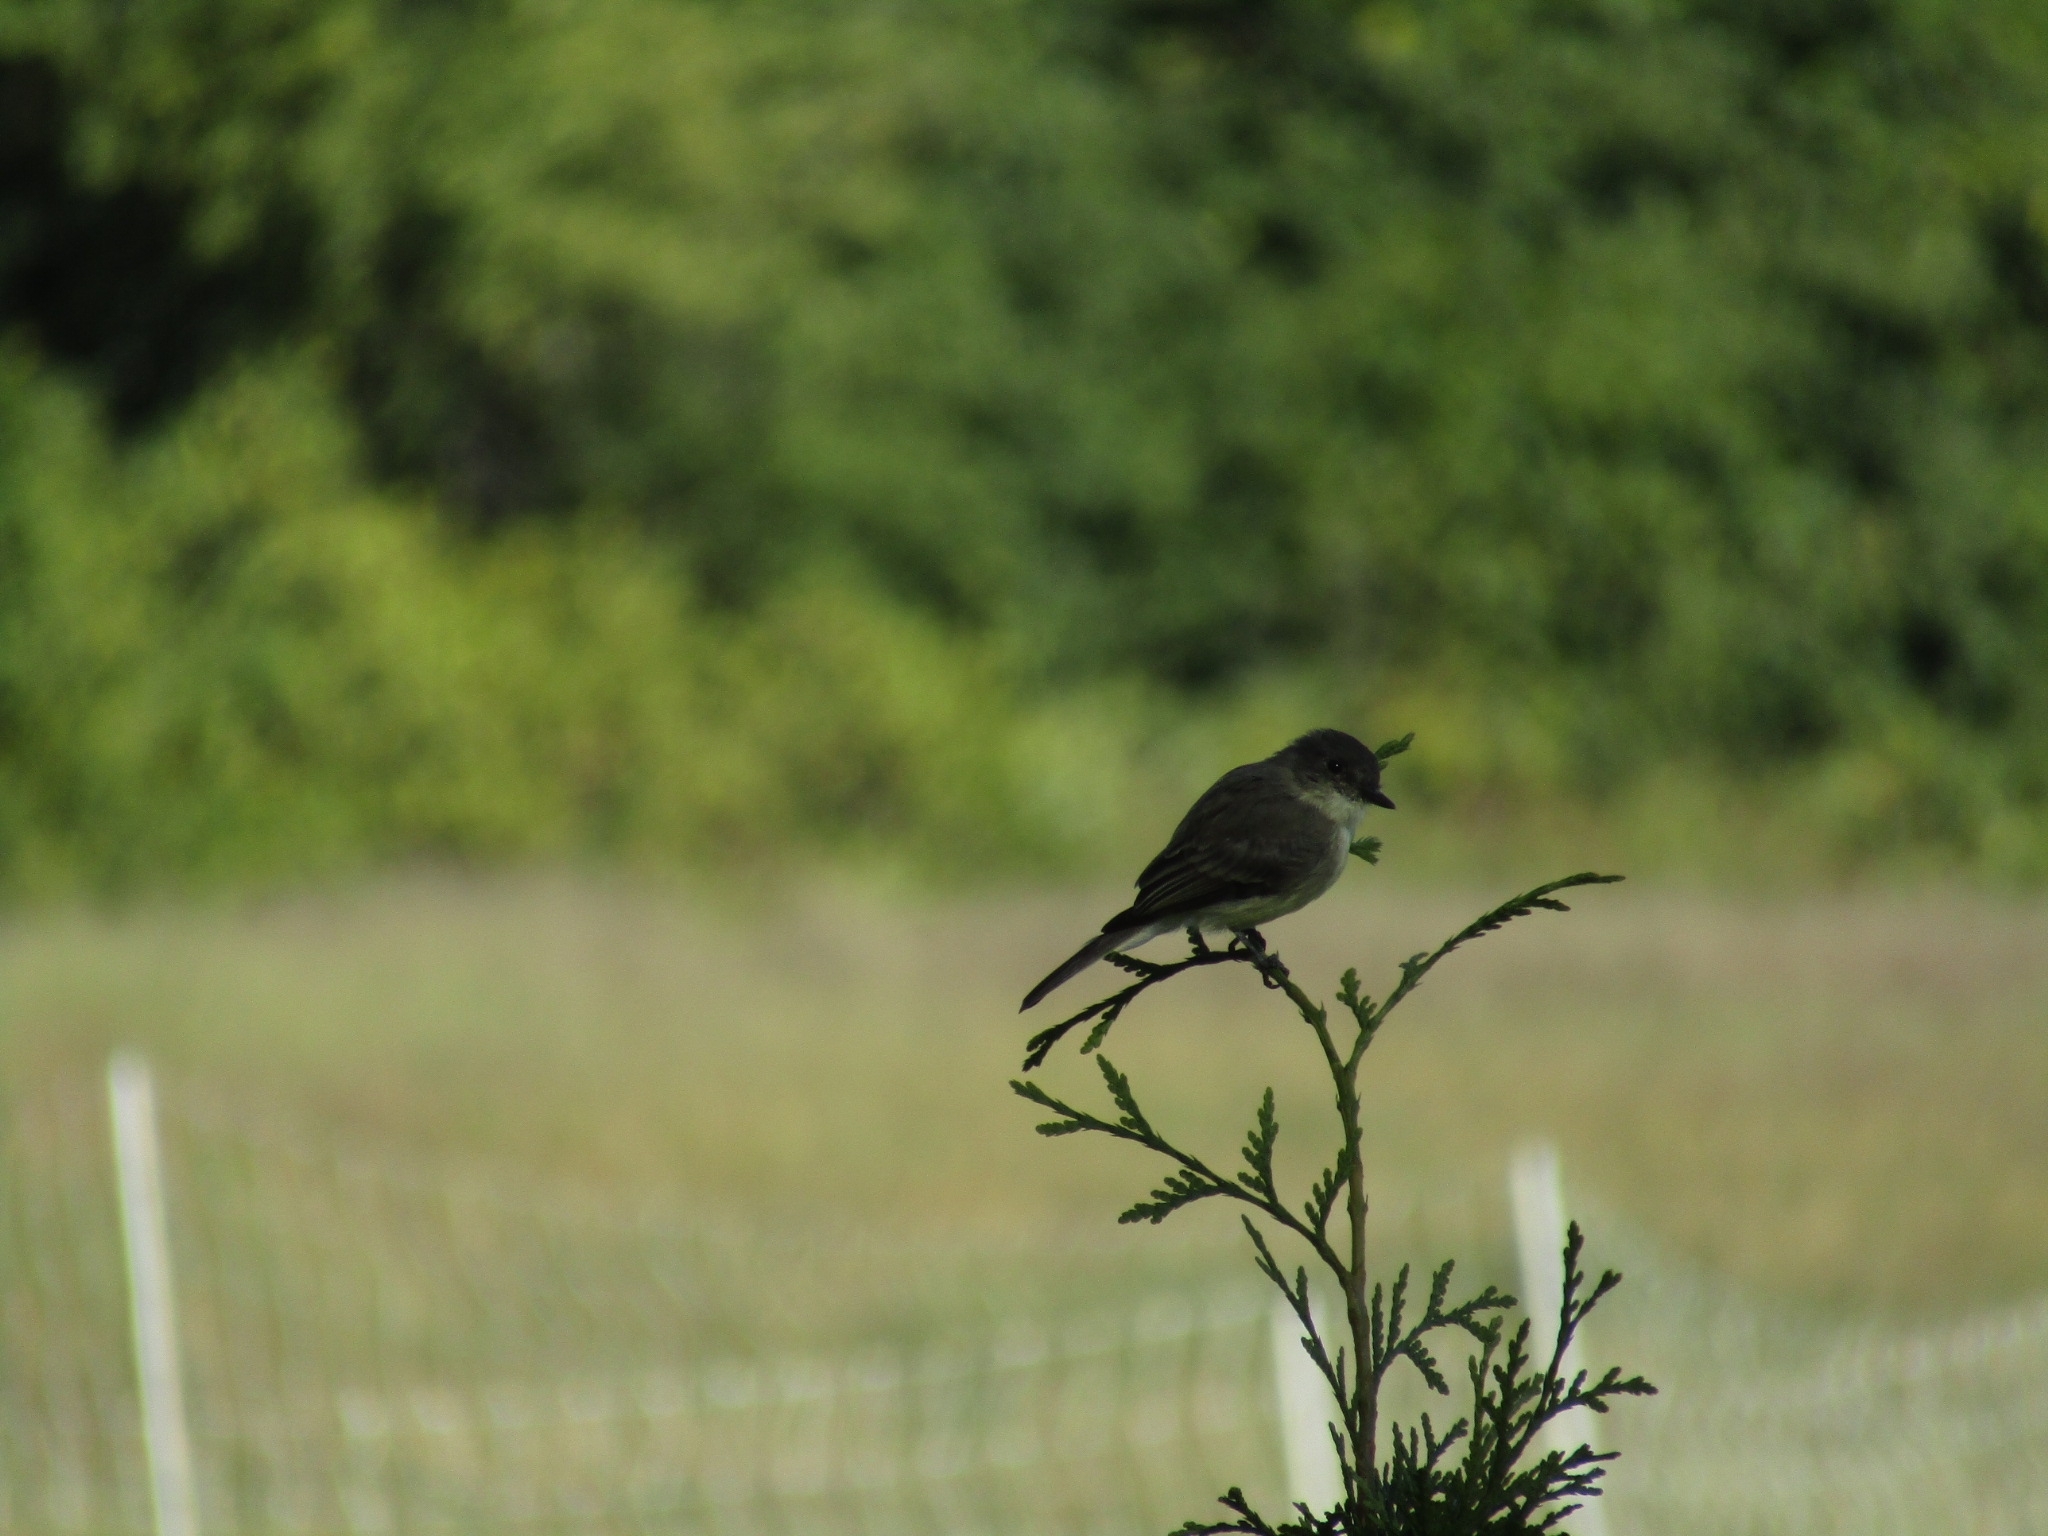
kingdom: Animalia
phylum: Chordata
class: Aves
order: Passeriformes
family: Tyrannidae
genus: Sayornis
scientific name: Sayornis phoebe
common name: Eastern phoebe
